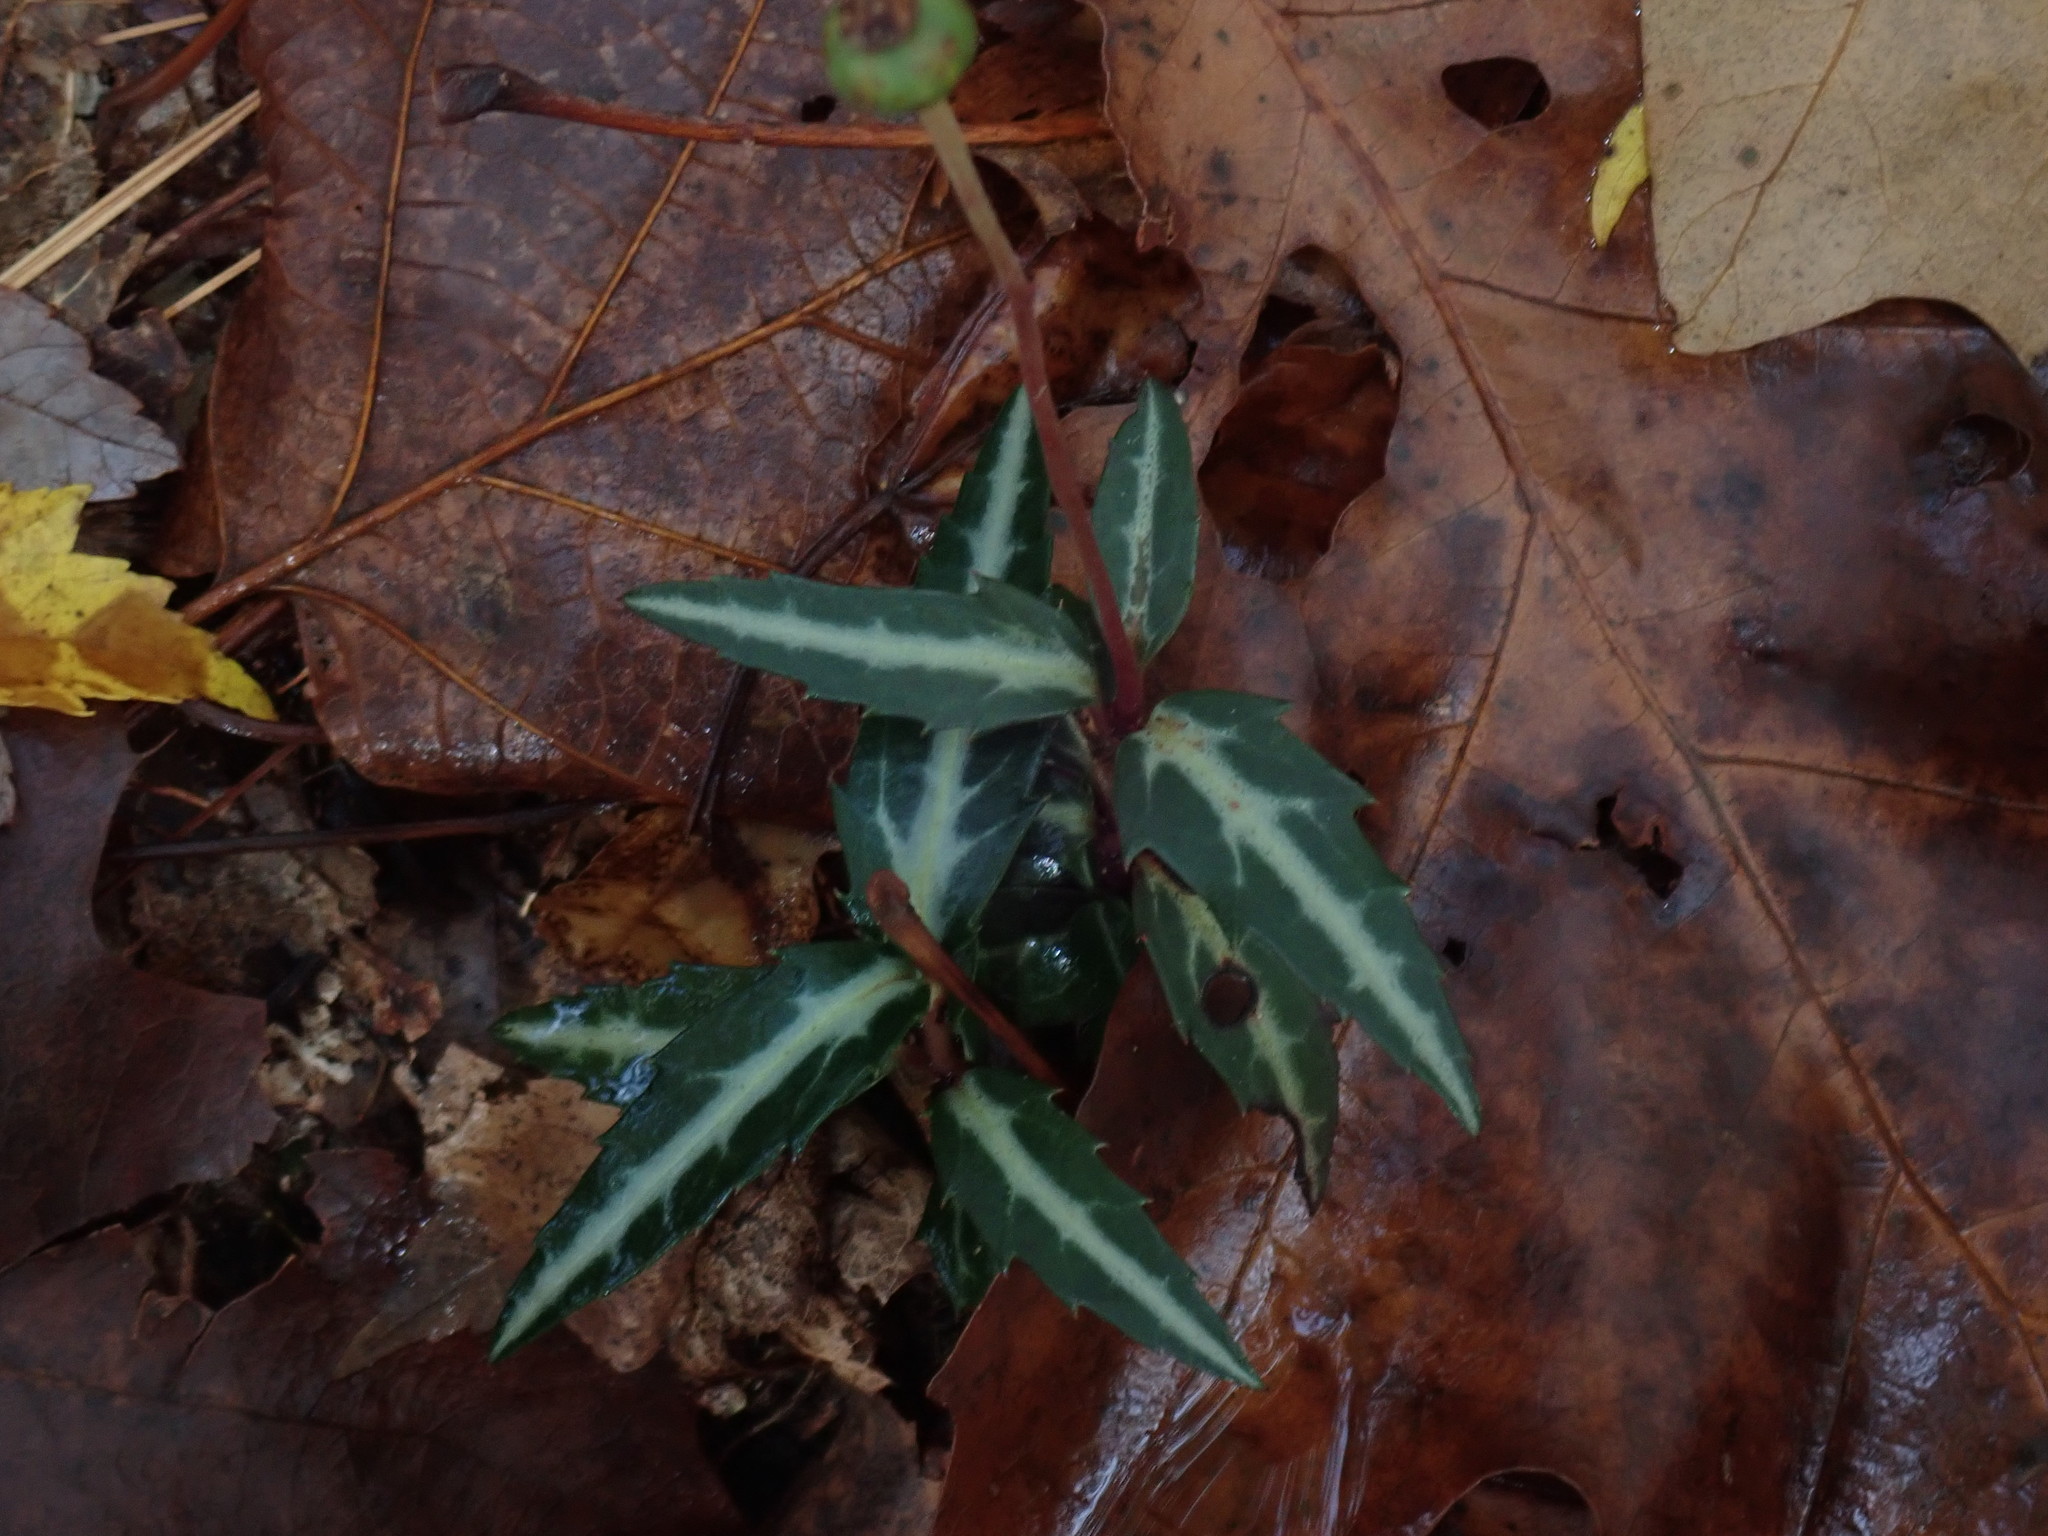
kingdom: Plantae
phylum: Tracheophyta
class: Magnoliopsida
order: Ericales
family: Ericaceae
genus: Chimaphila
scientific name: Chimaphila maculata
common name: Spotted pipsissewa
